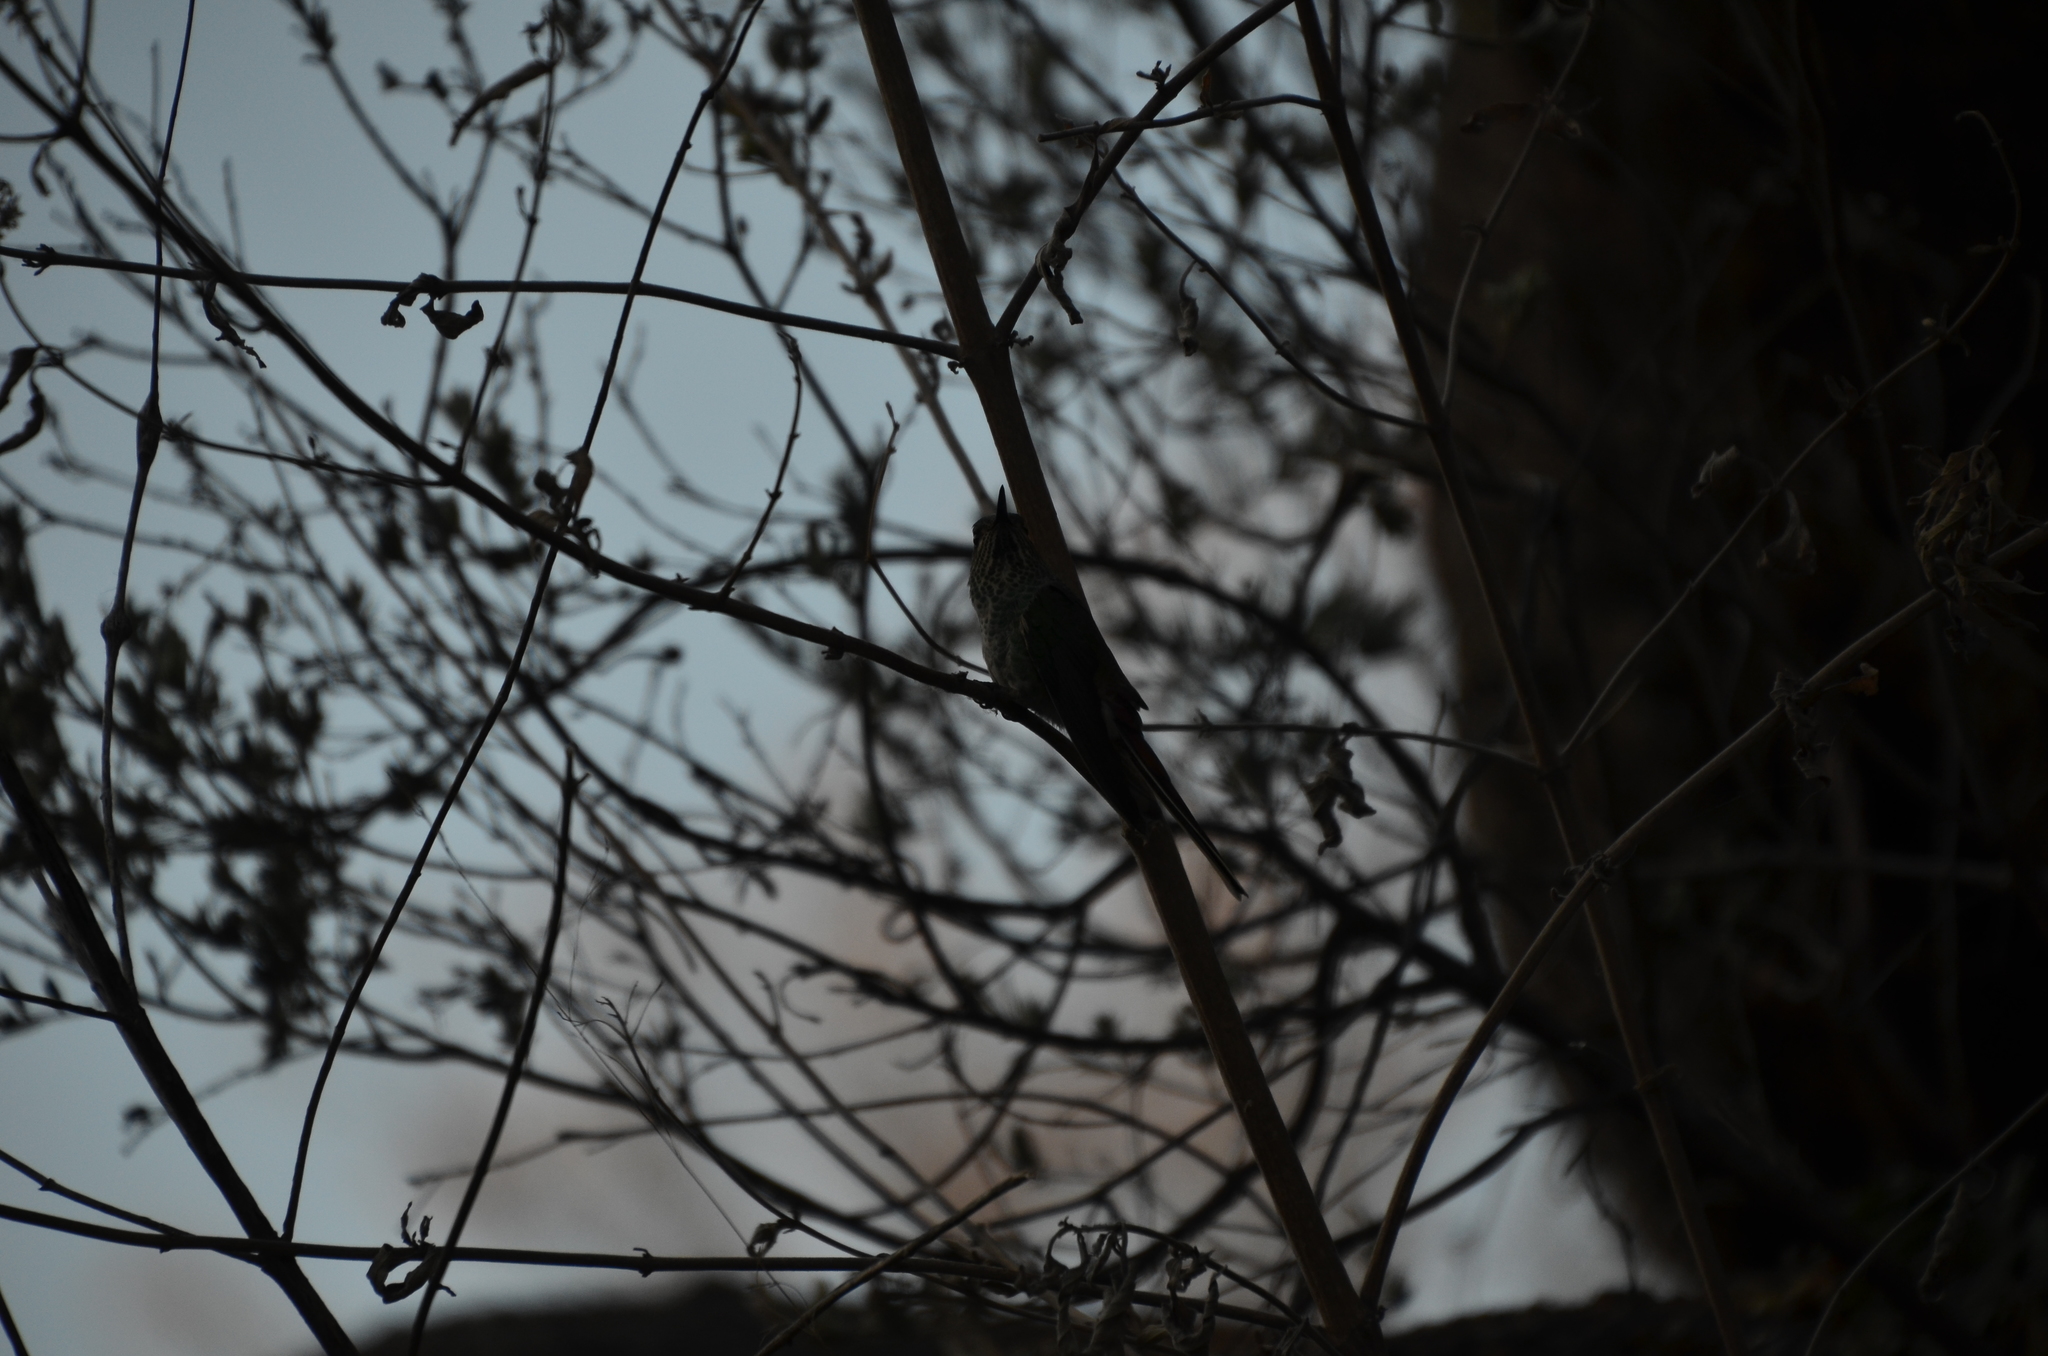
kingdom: Animalia
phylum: Chordata
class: Aves
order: Apodiformes
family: Trochilidae
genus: Sappho
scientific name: Sappho sparganurus
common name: Red-tailed comet
